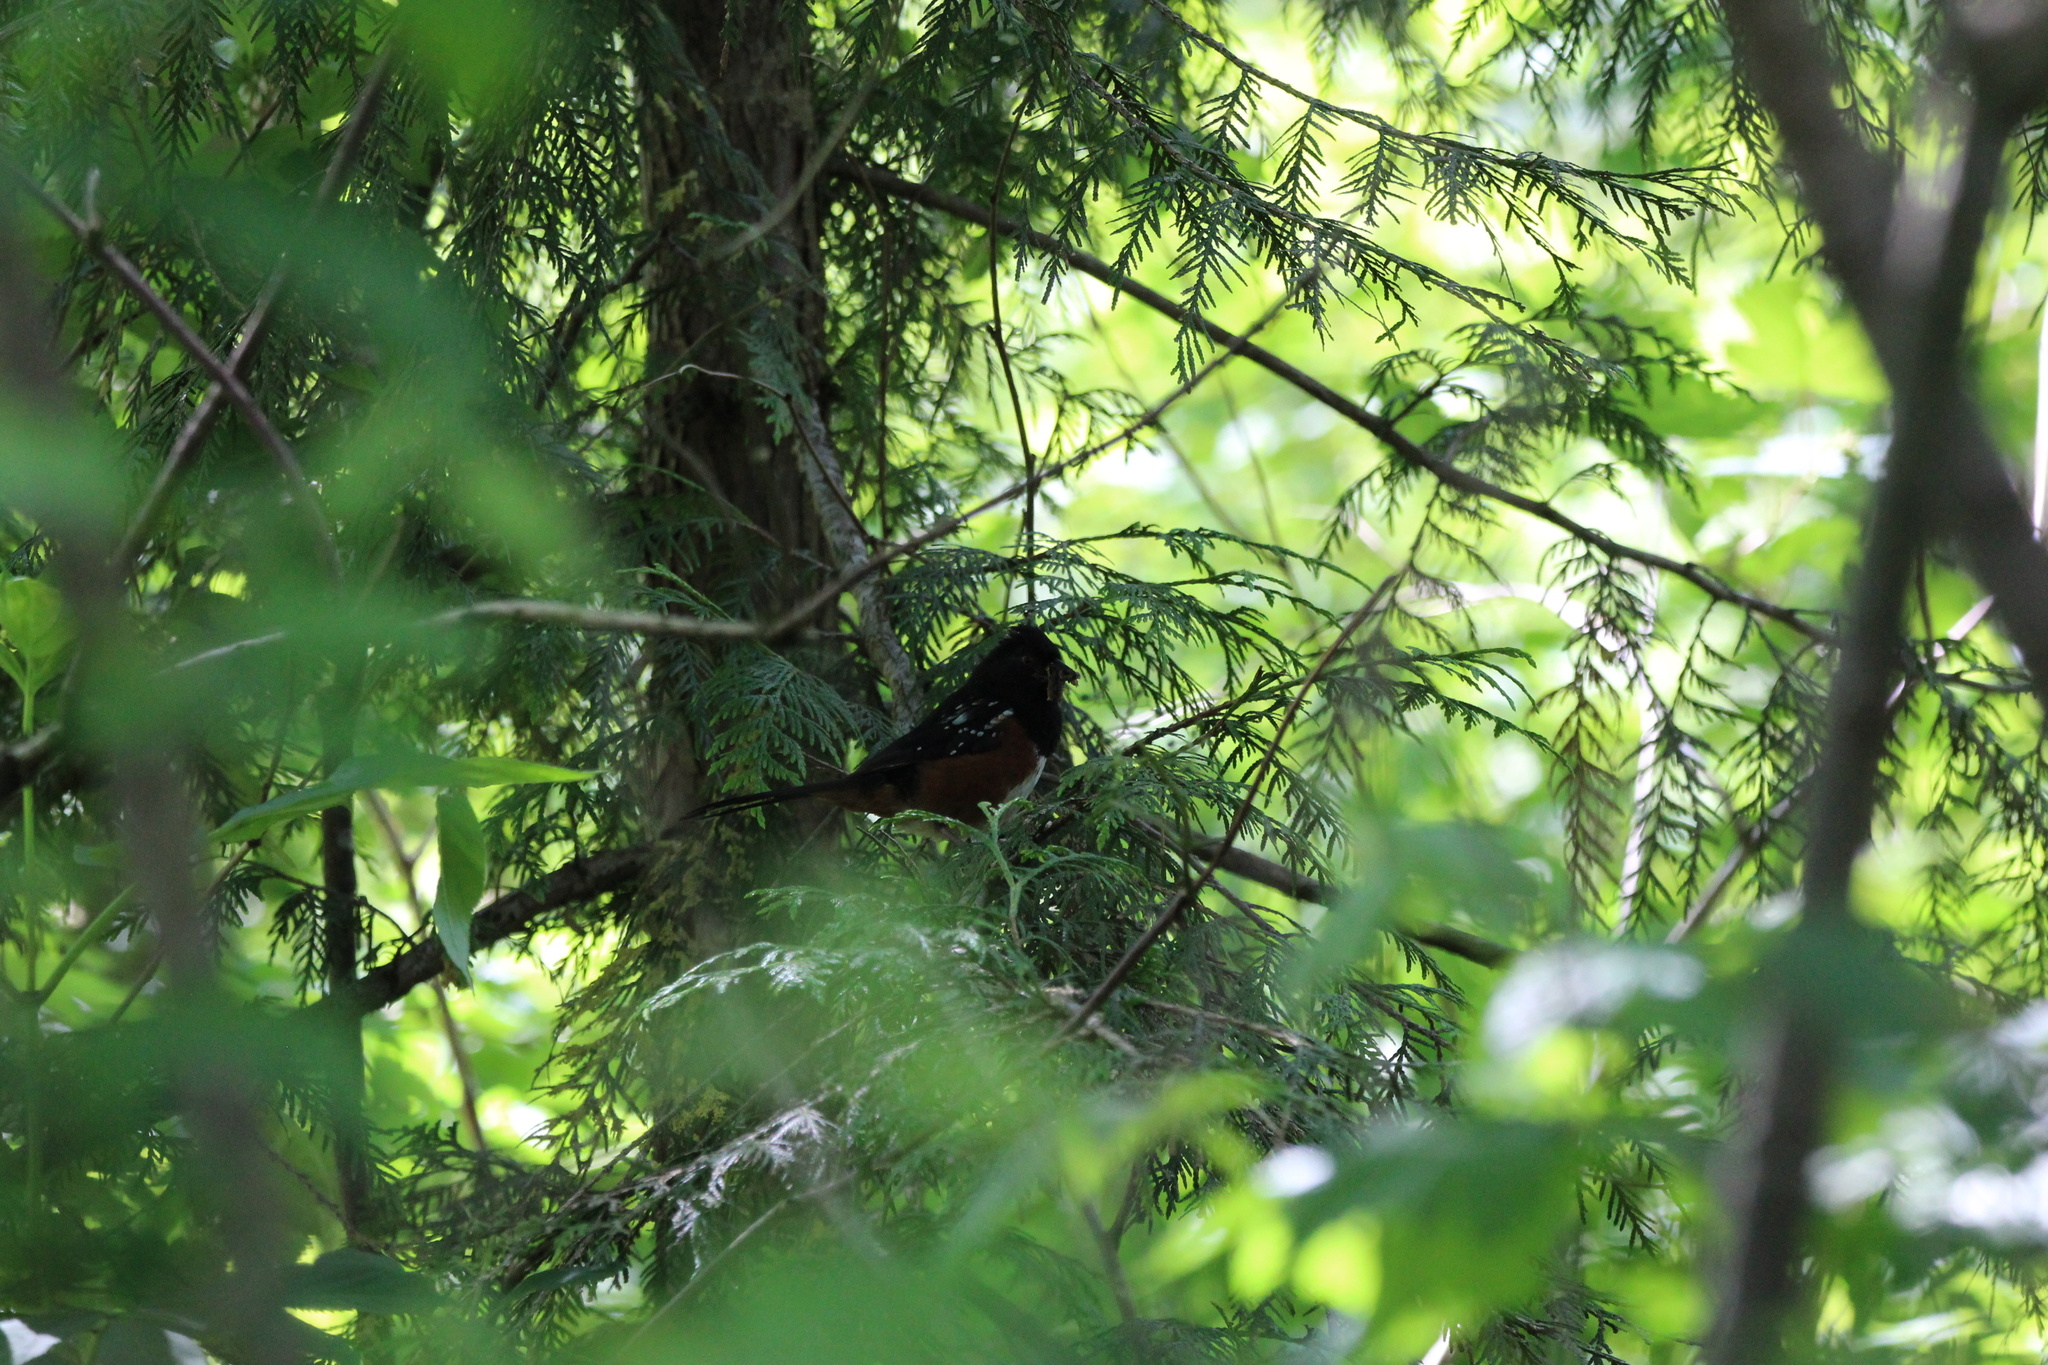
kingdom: Animalia
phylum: Chordata
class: Aves
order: Passeriformes
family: Passerellidae
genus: Pipilo
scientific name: Pipilo maculatus
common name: Spotted towhee
